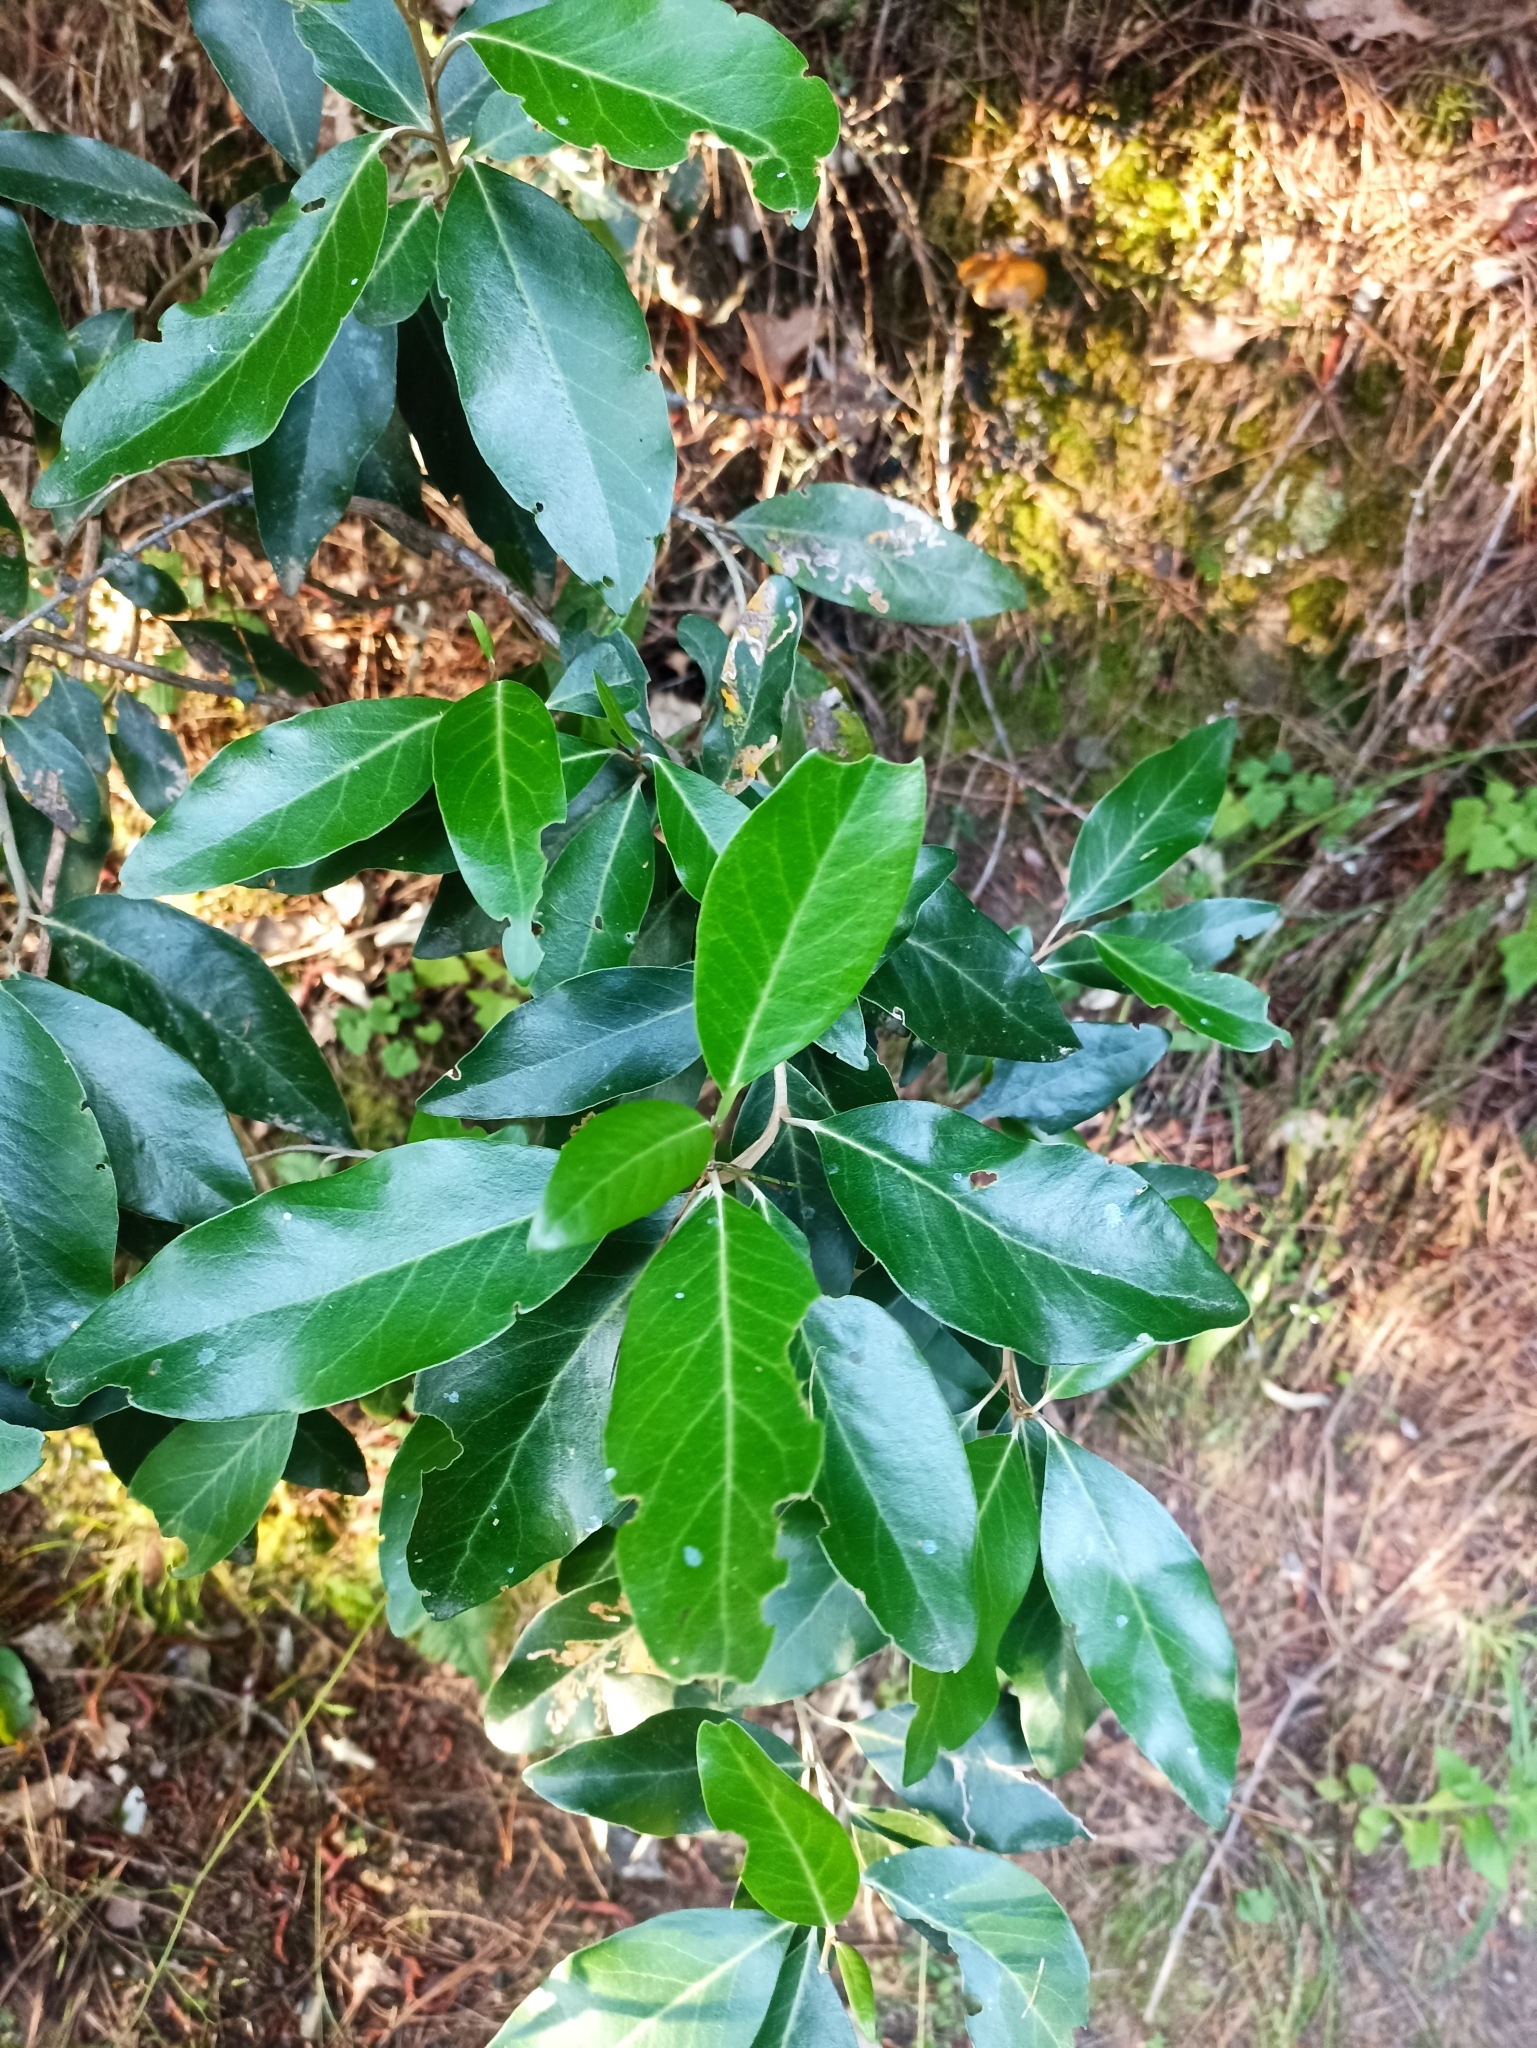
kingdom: Plantae
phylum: Tracheophyta
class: Magnoliopsida
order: Asterales
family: Asteraceae
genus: Olearia
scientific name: Olearia avicenniifolia
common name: Mangrove-leaf daisybush
